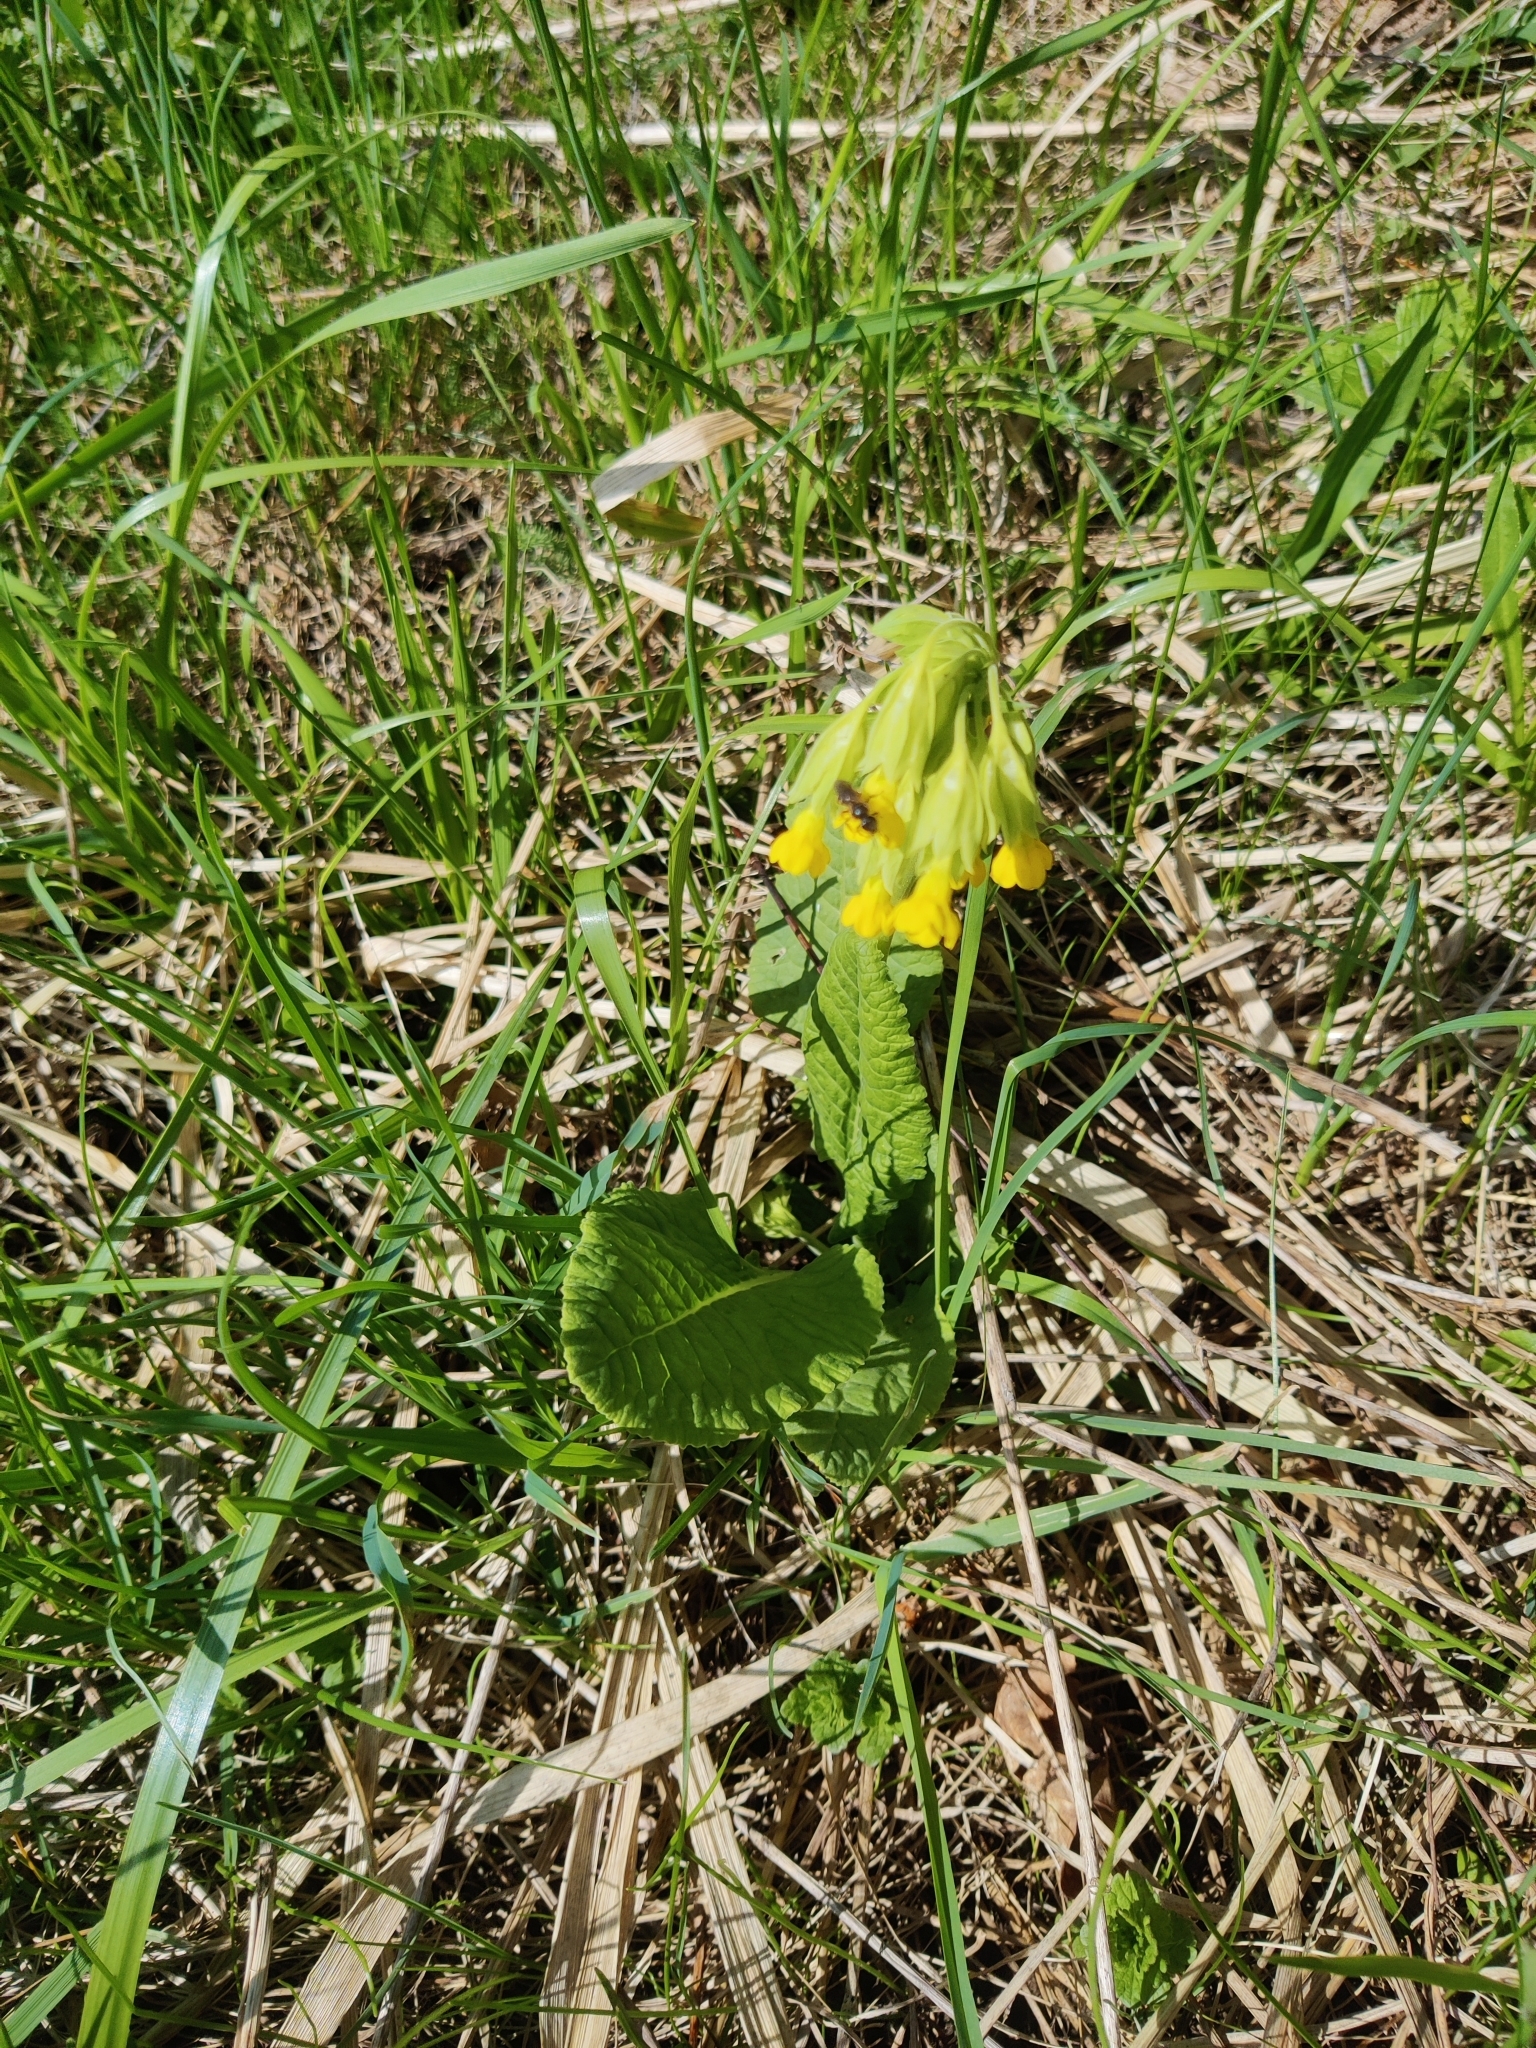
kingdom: Plantae
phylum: Tracheophyta
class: Magnoliopsida
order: Ericales
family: Primulaceae
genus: Primula
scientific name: Primula veris
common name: Cowslip
